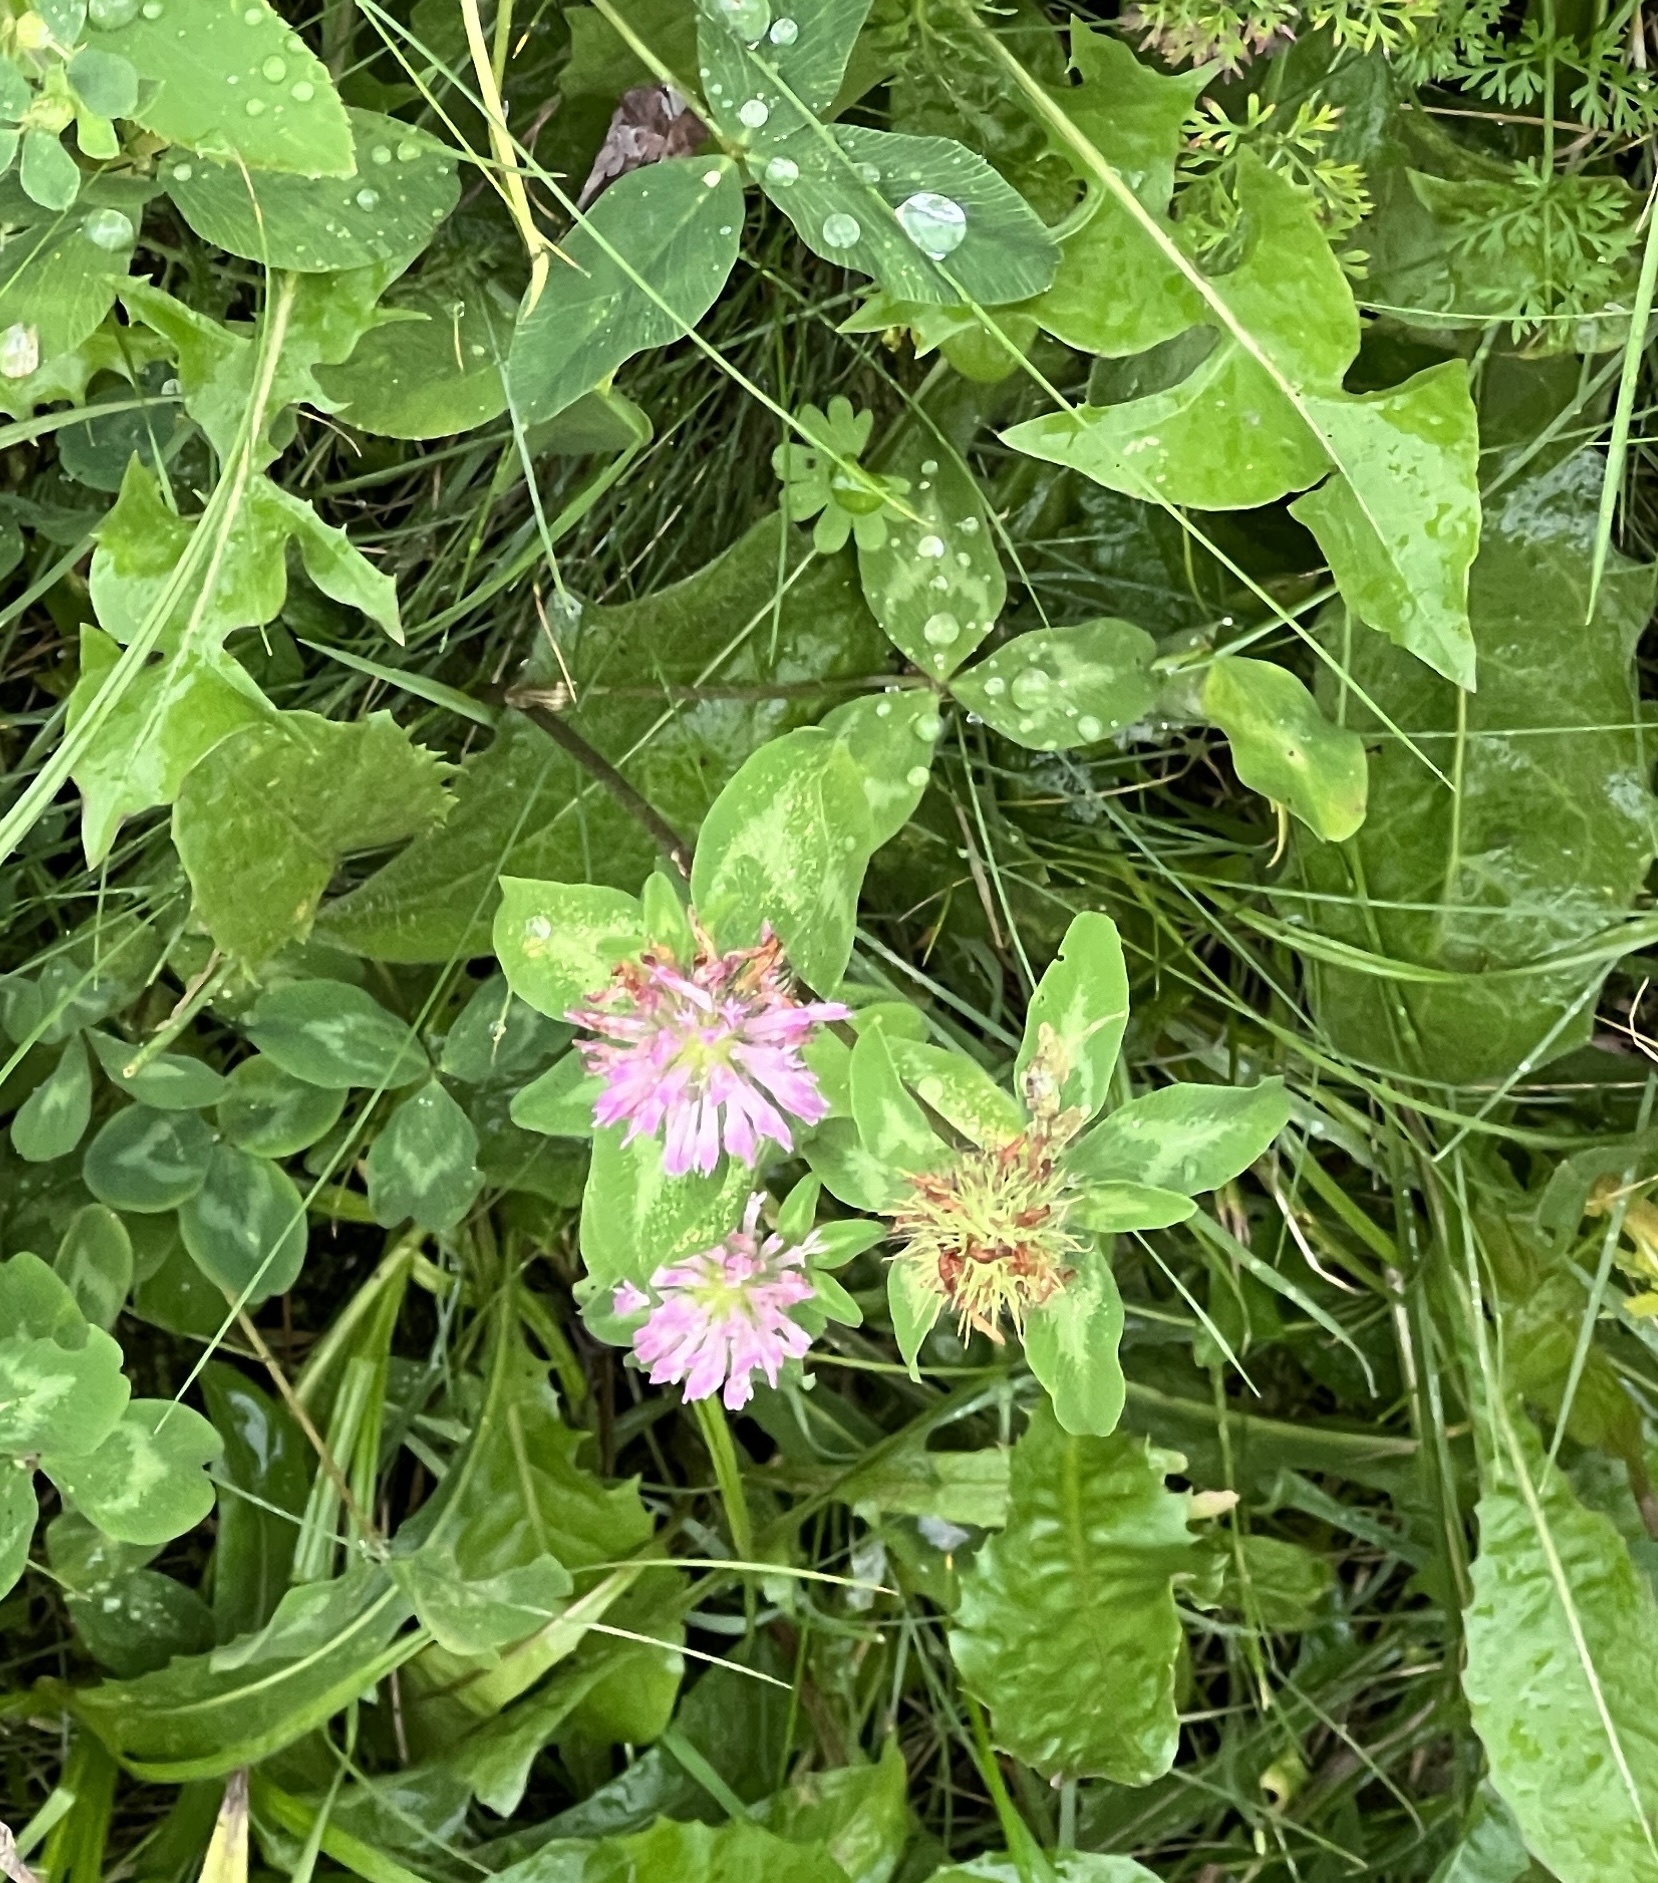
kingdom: Plantae
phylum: Tracheophyta
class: Magnoliopsida
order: Fabales
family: Fabaceae
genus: Trifolium
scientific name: Trifolium pratense
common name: Red clover
